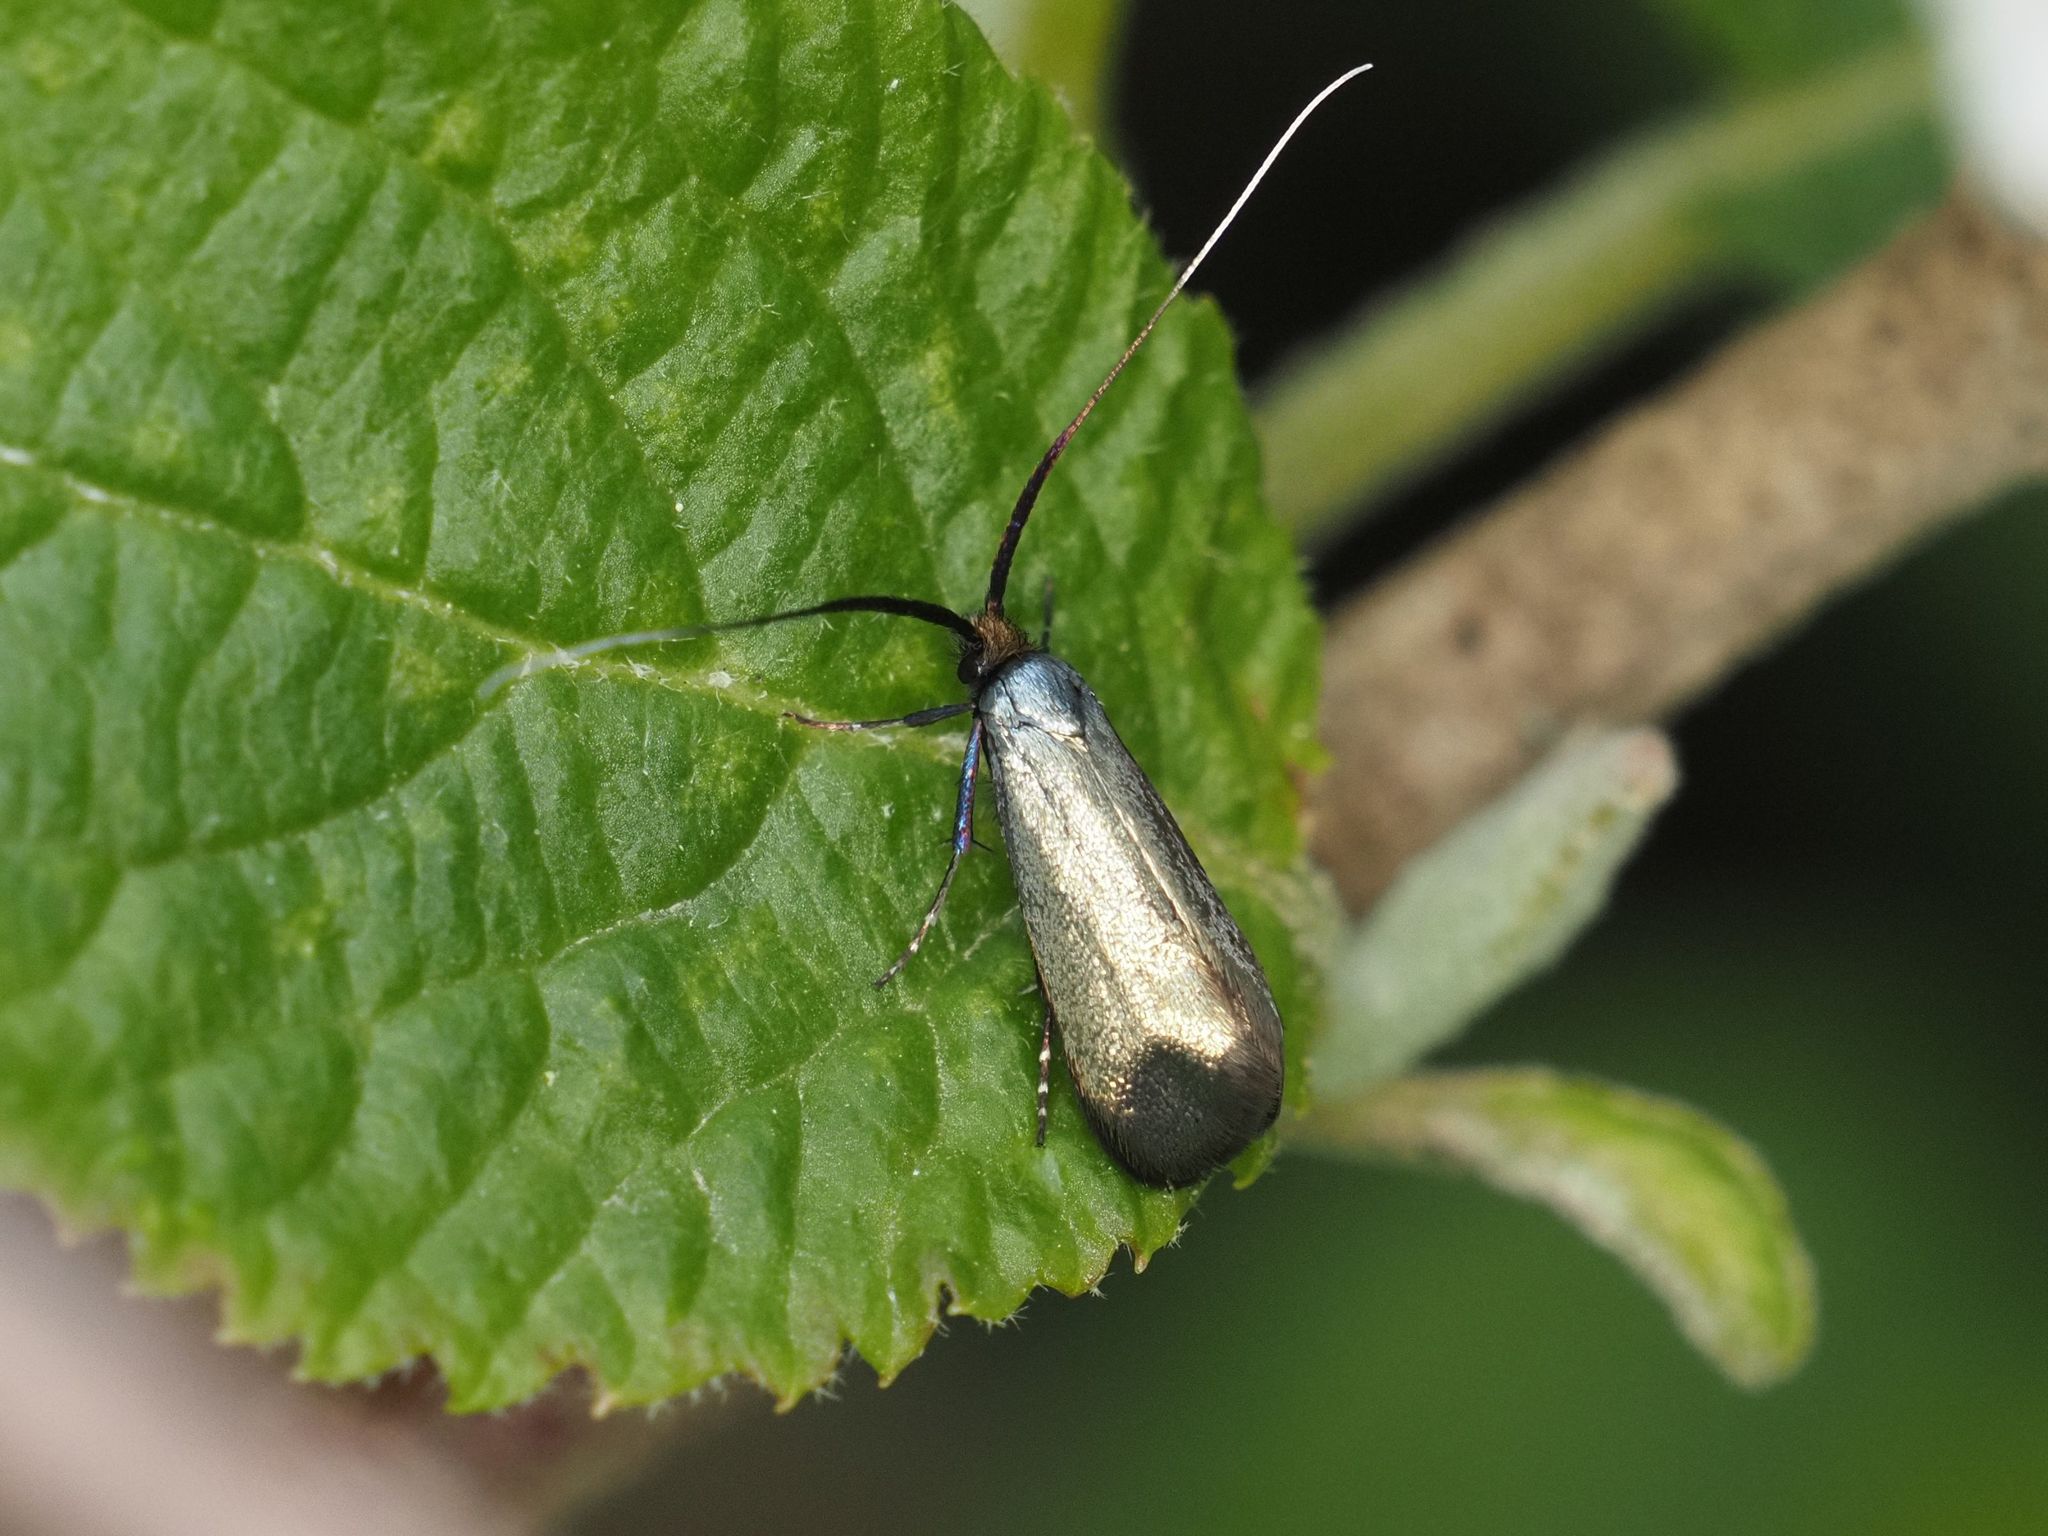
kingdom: Animalia
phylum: Arthropoda
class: Insecta
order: Lepidoptera
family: Adelidae
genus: Adela
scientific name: Adela viridella
